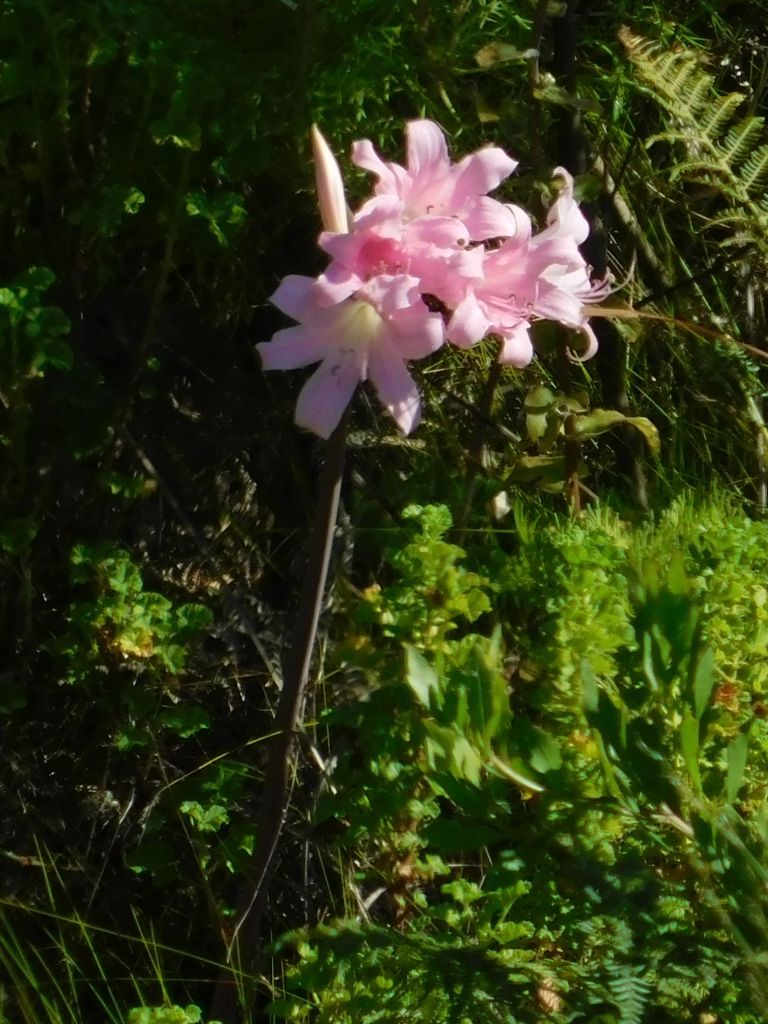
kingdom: Plantae
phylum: Tracheophyta
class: Liliopsida
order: Asparagales
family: Amaryllidaceae
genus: Amaryllis
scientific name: Amaryllis belladonna
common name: Jersey lily
